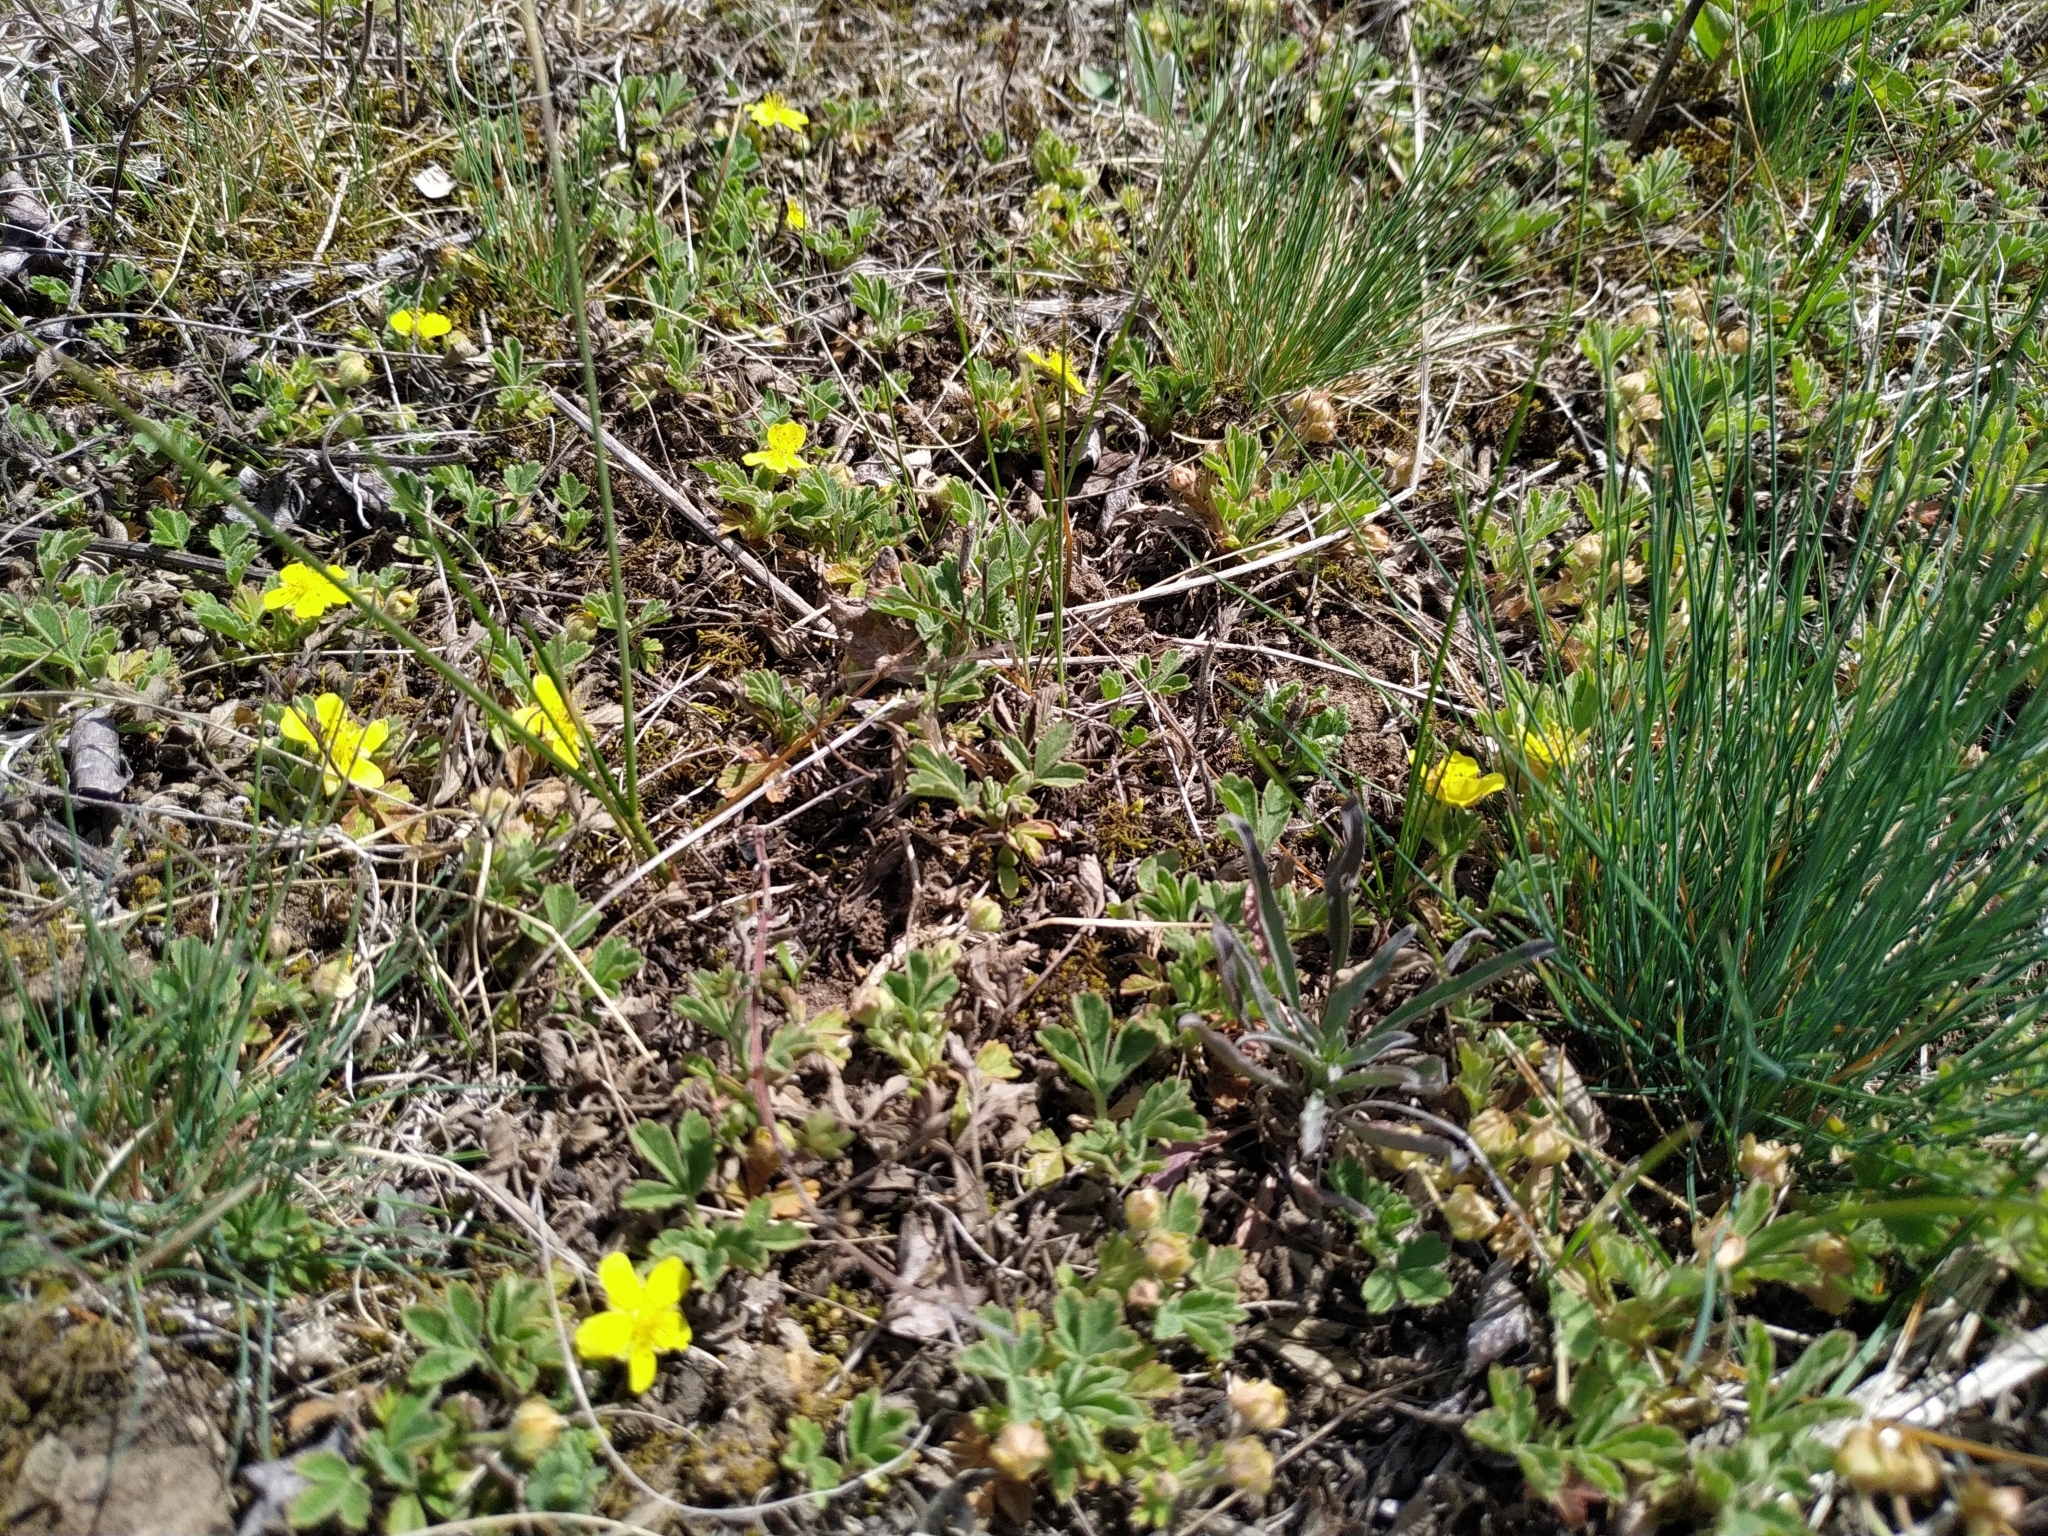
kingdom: Plantae
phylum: Tracheophyta
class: Magnoliopsida
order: Rosales
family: Rosaceae
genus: Potentilla
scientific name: Potentilla incana
